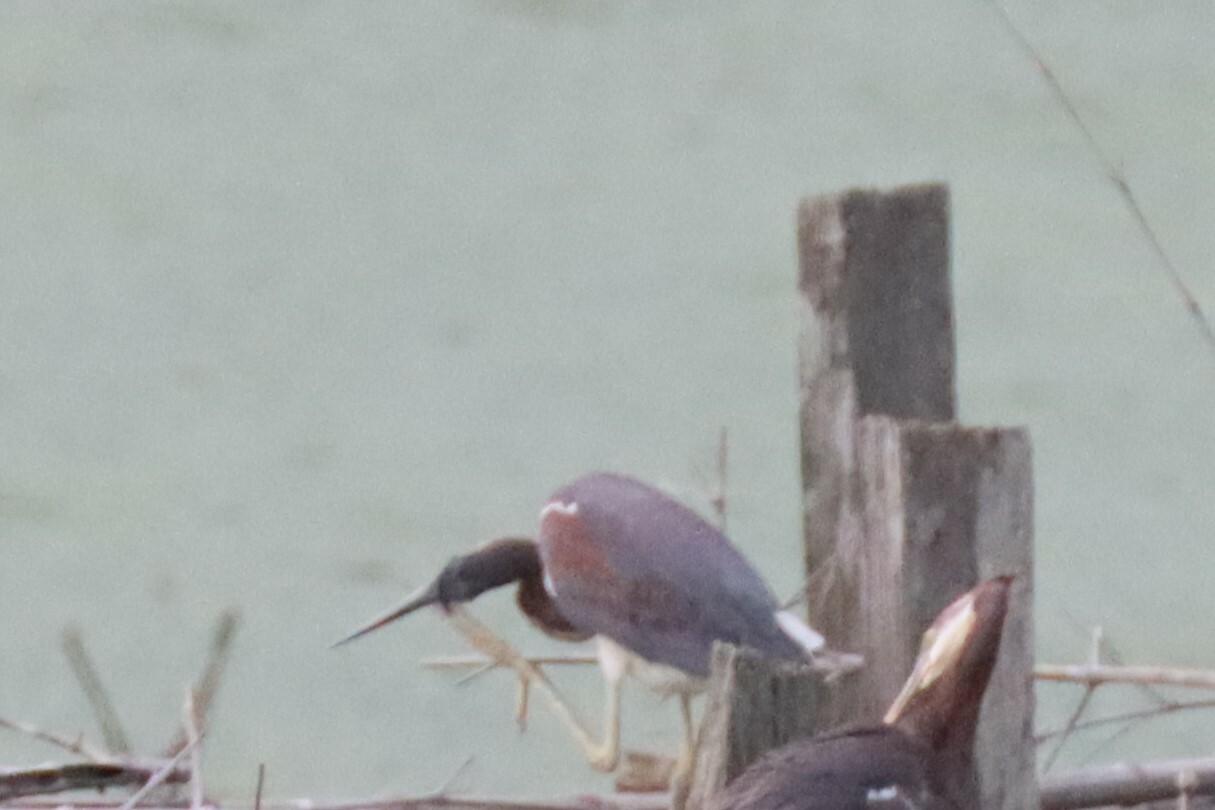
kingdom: Animalia
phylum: Chordata
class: Aves
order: Pelecaniformes
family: Ardeidae
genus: Egretta
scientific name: Egretta tricolor
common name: Tricolored heron
